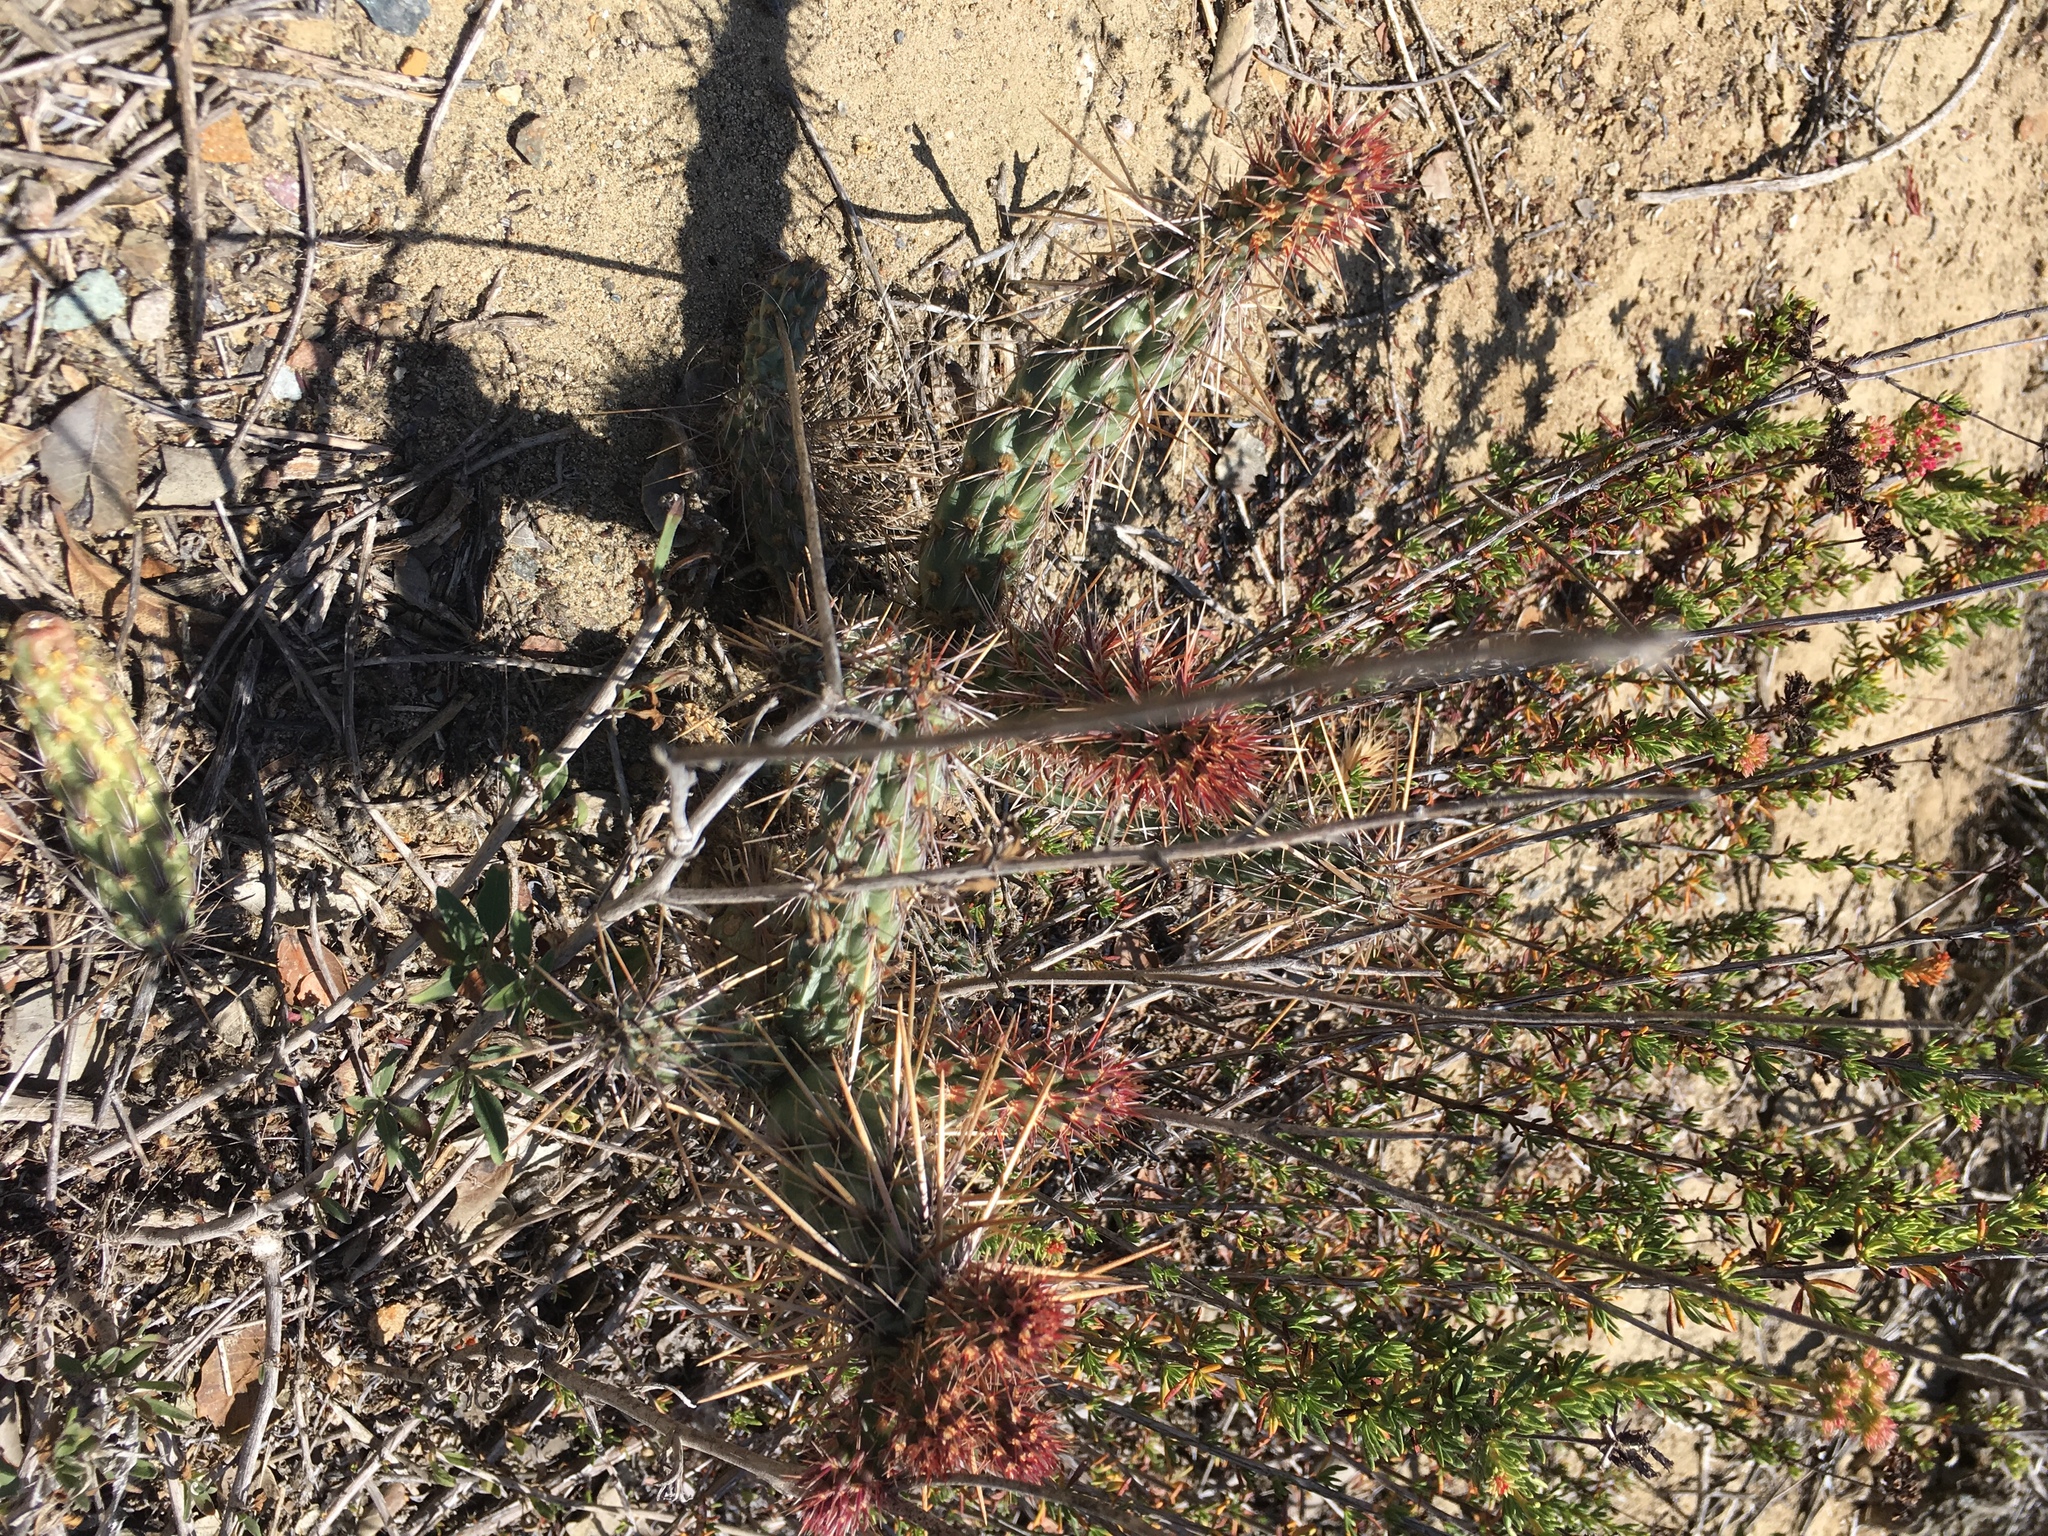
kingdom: Plantae
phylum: Tracheophyta
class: Magnoliopsida
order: Caryophyllales
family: Cactaceae
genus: Cylindropuntia
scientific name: Cylindropuntia prolifera
